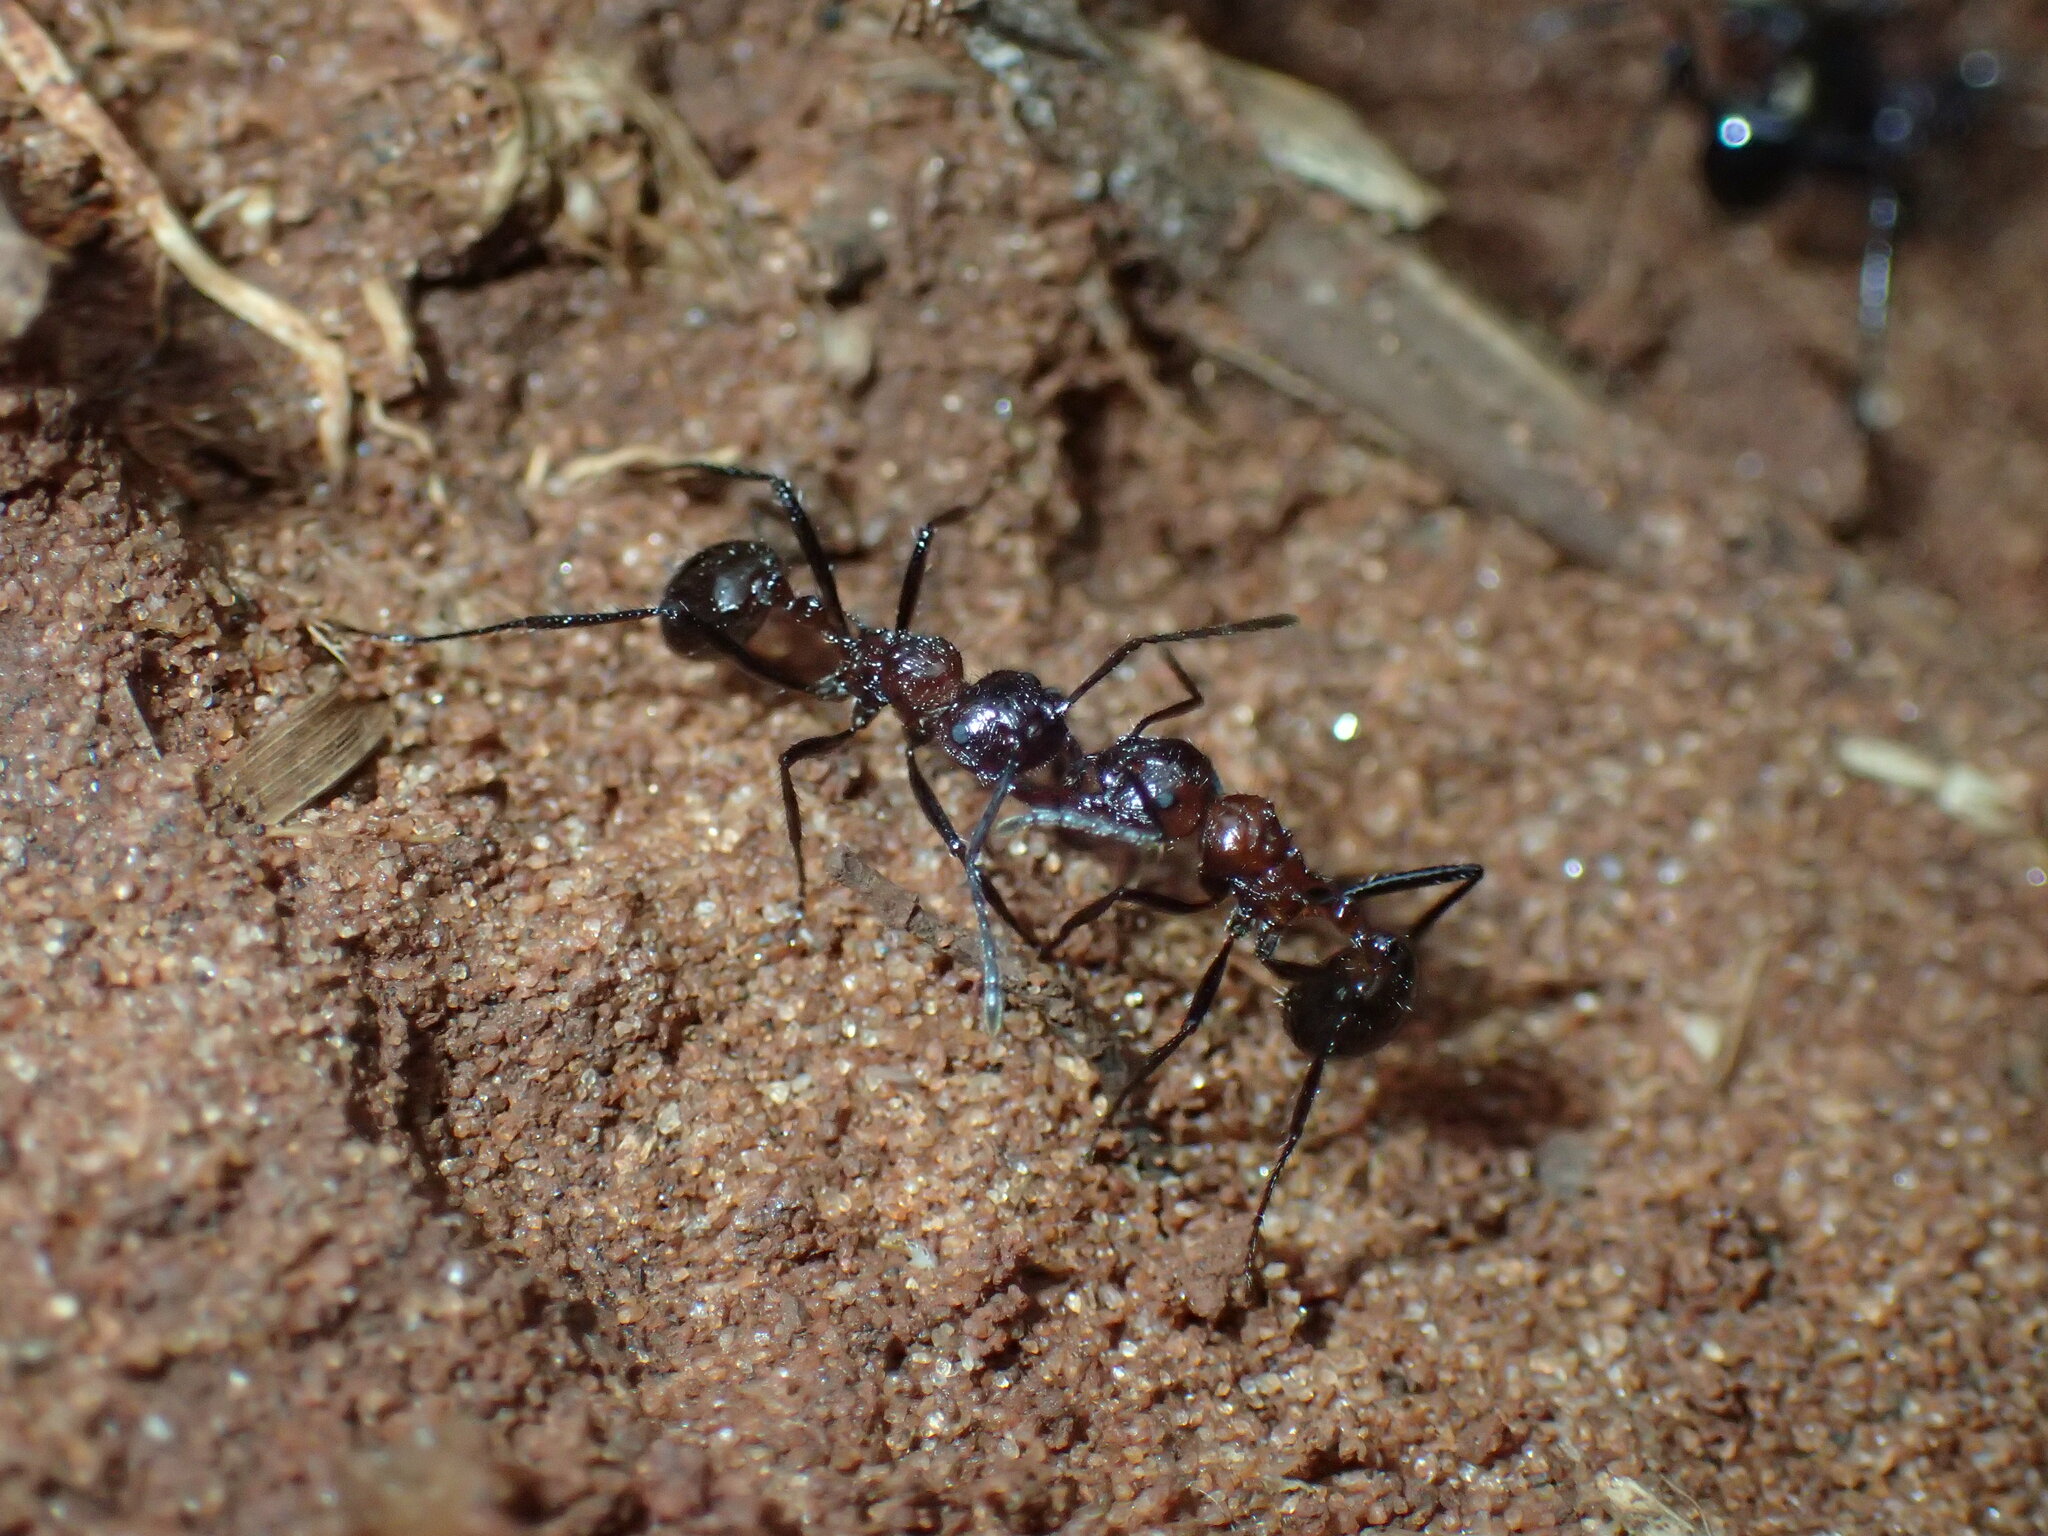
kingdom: Animalia
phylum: Arthropoda
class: Insecta
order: Hymenoptera
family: Formicidae
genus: Myrmicaria
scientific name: Myrmicaria natalensis
